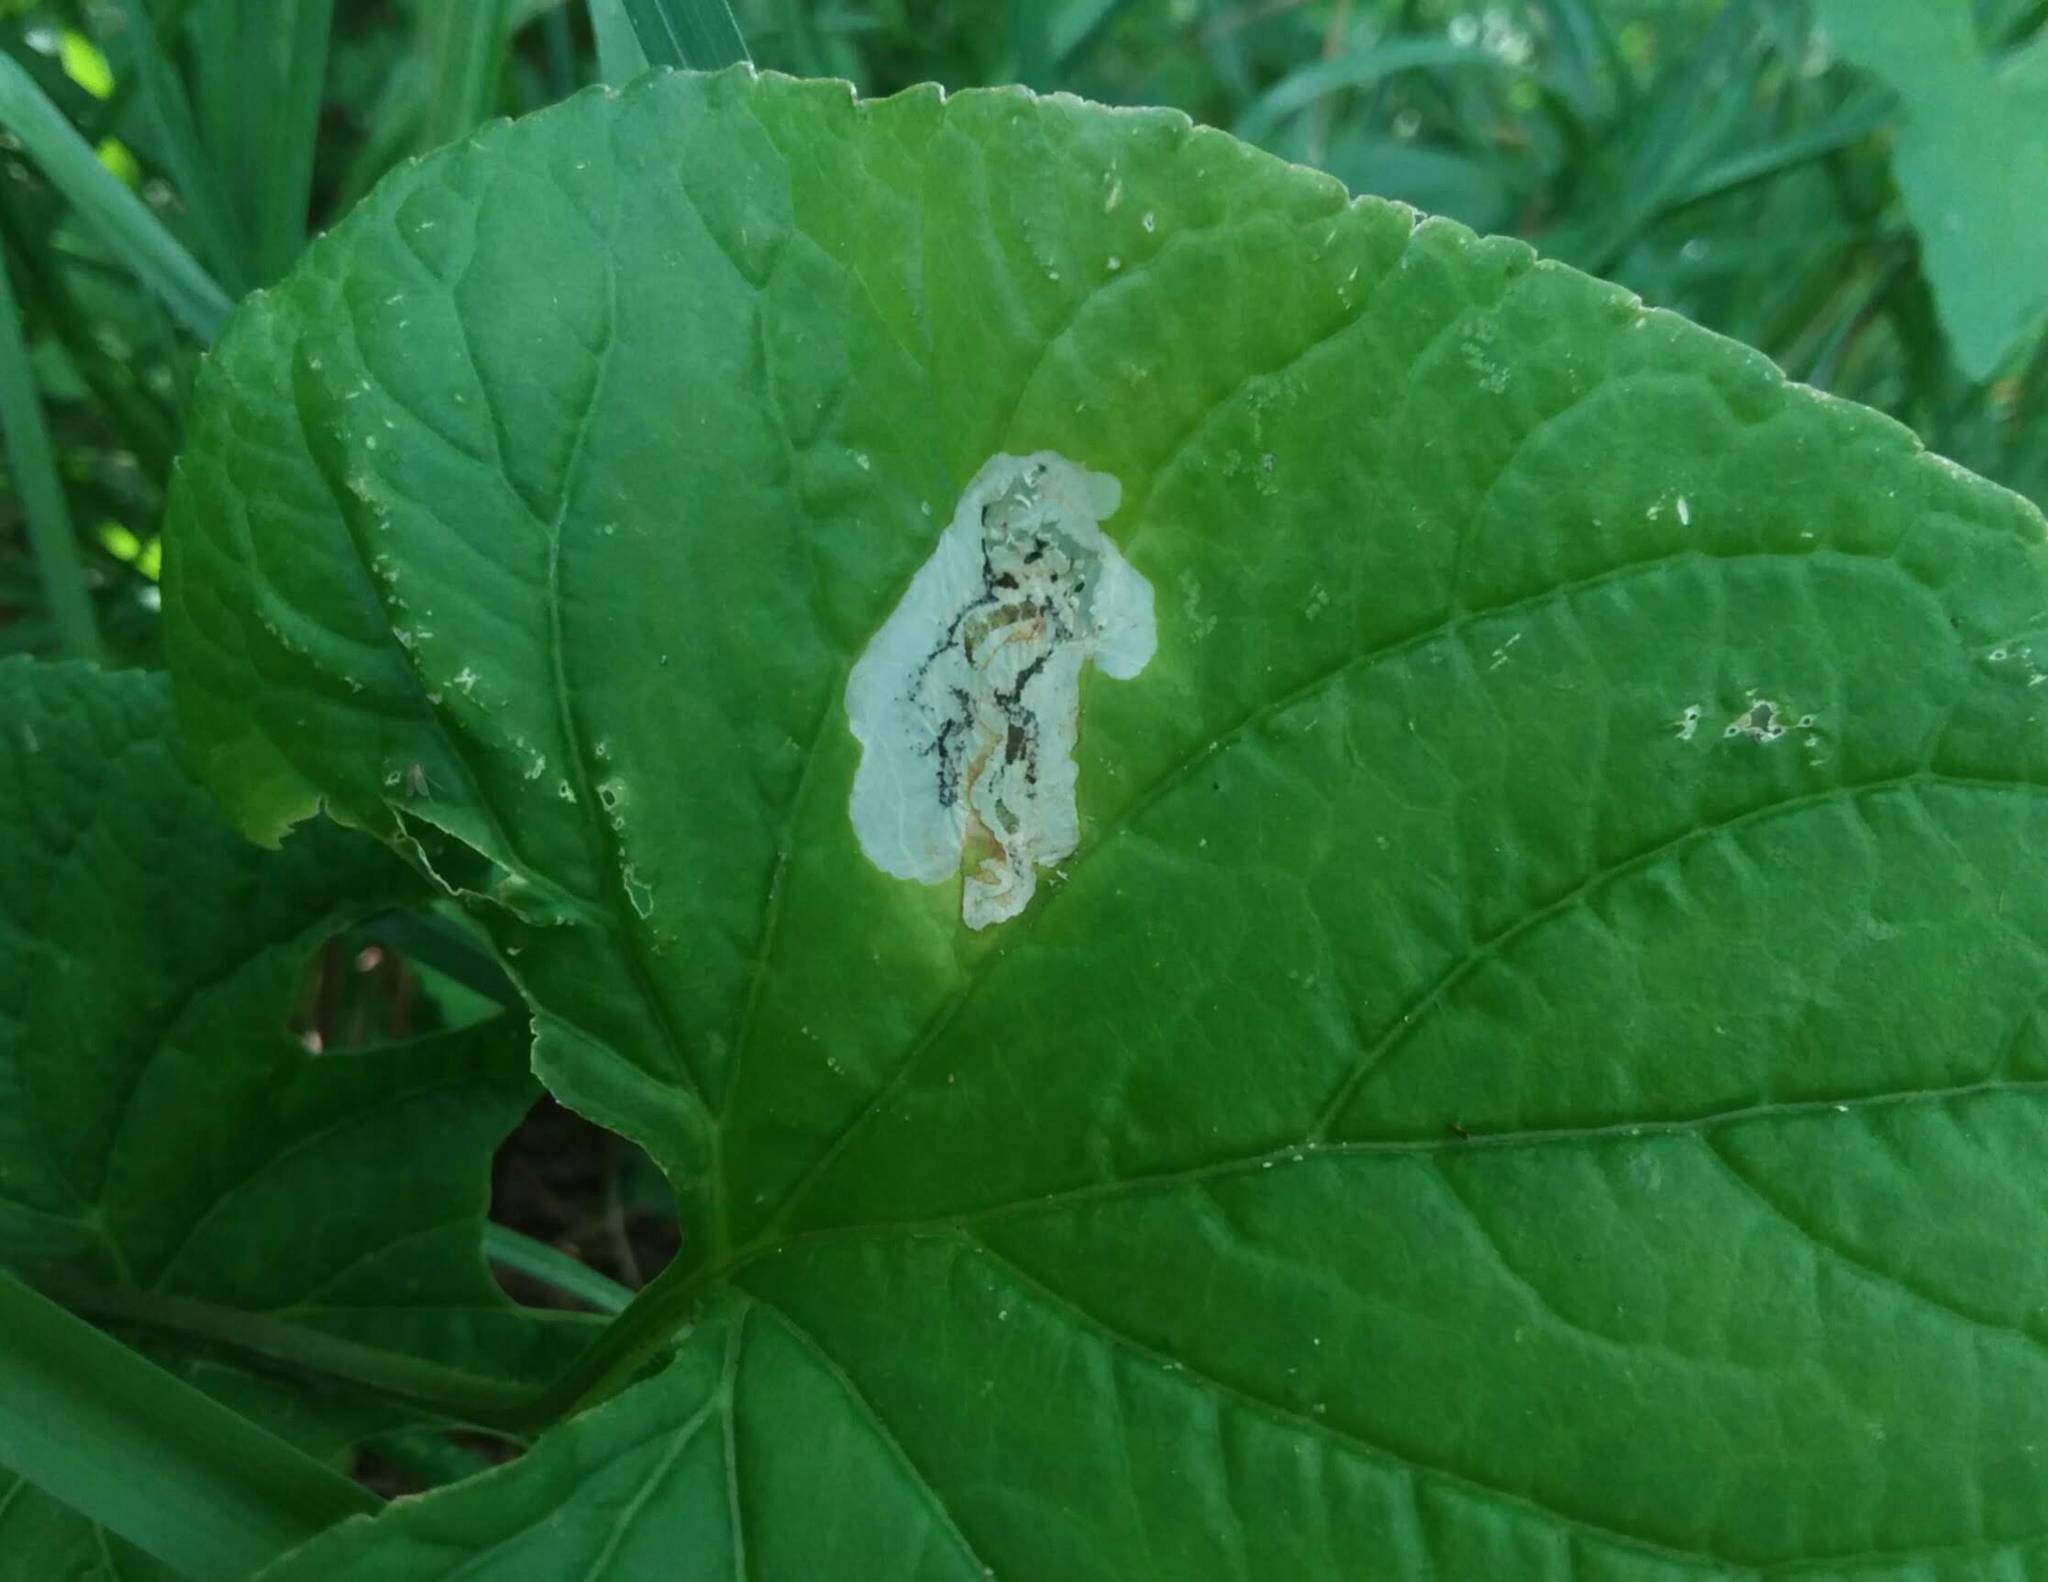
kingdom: Animalia
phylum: Arthropoda
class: Insecta
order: Hymenoptera
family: Tenthredinidae
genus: Nefusa
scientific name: Nefusa ambigua
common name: Violet leafmining sawfly
